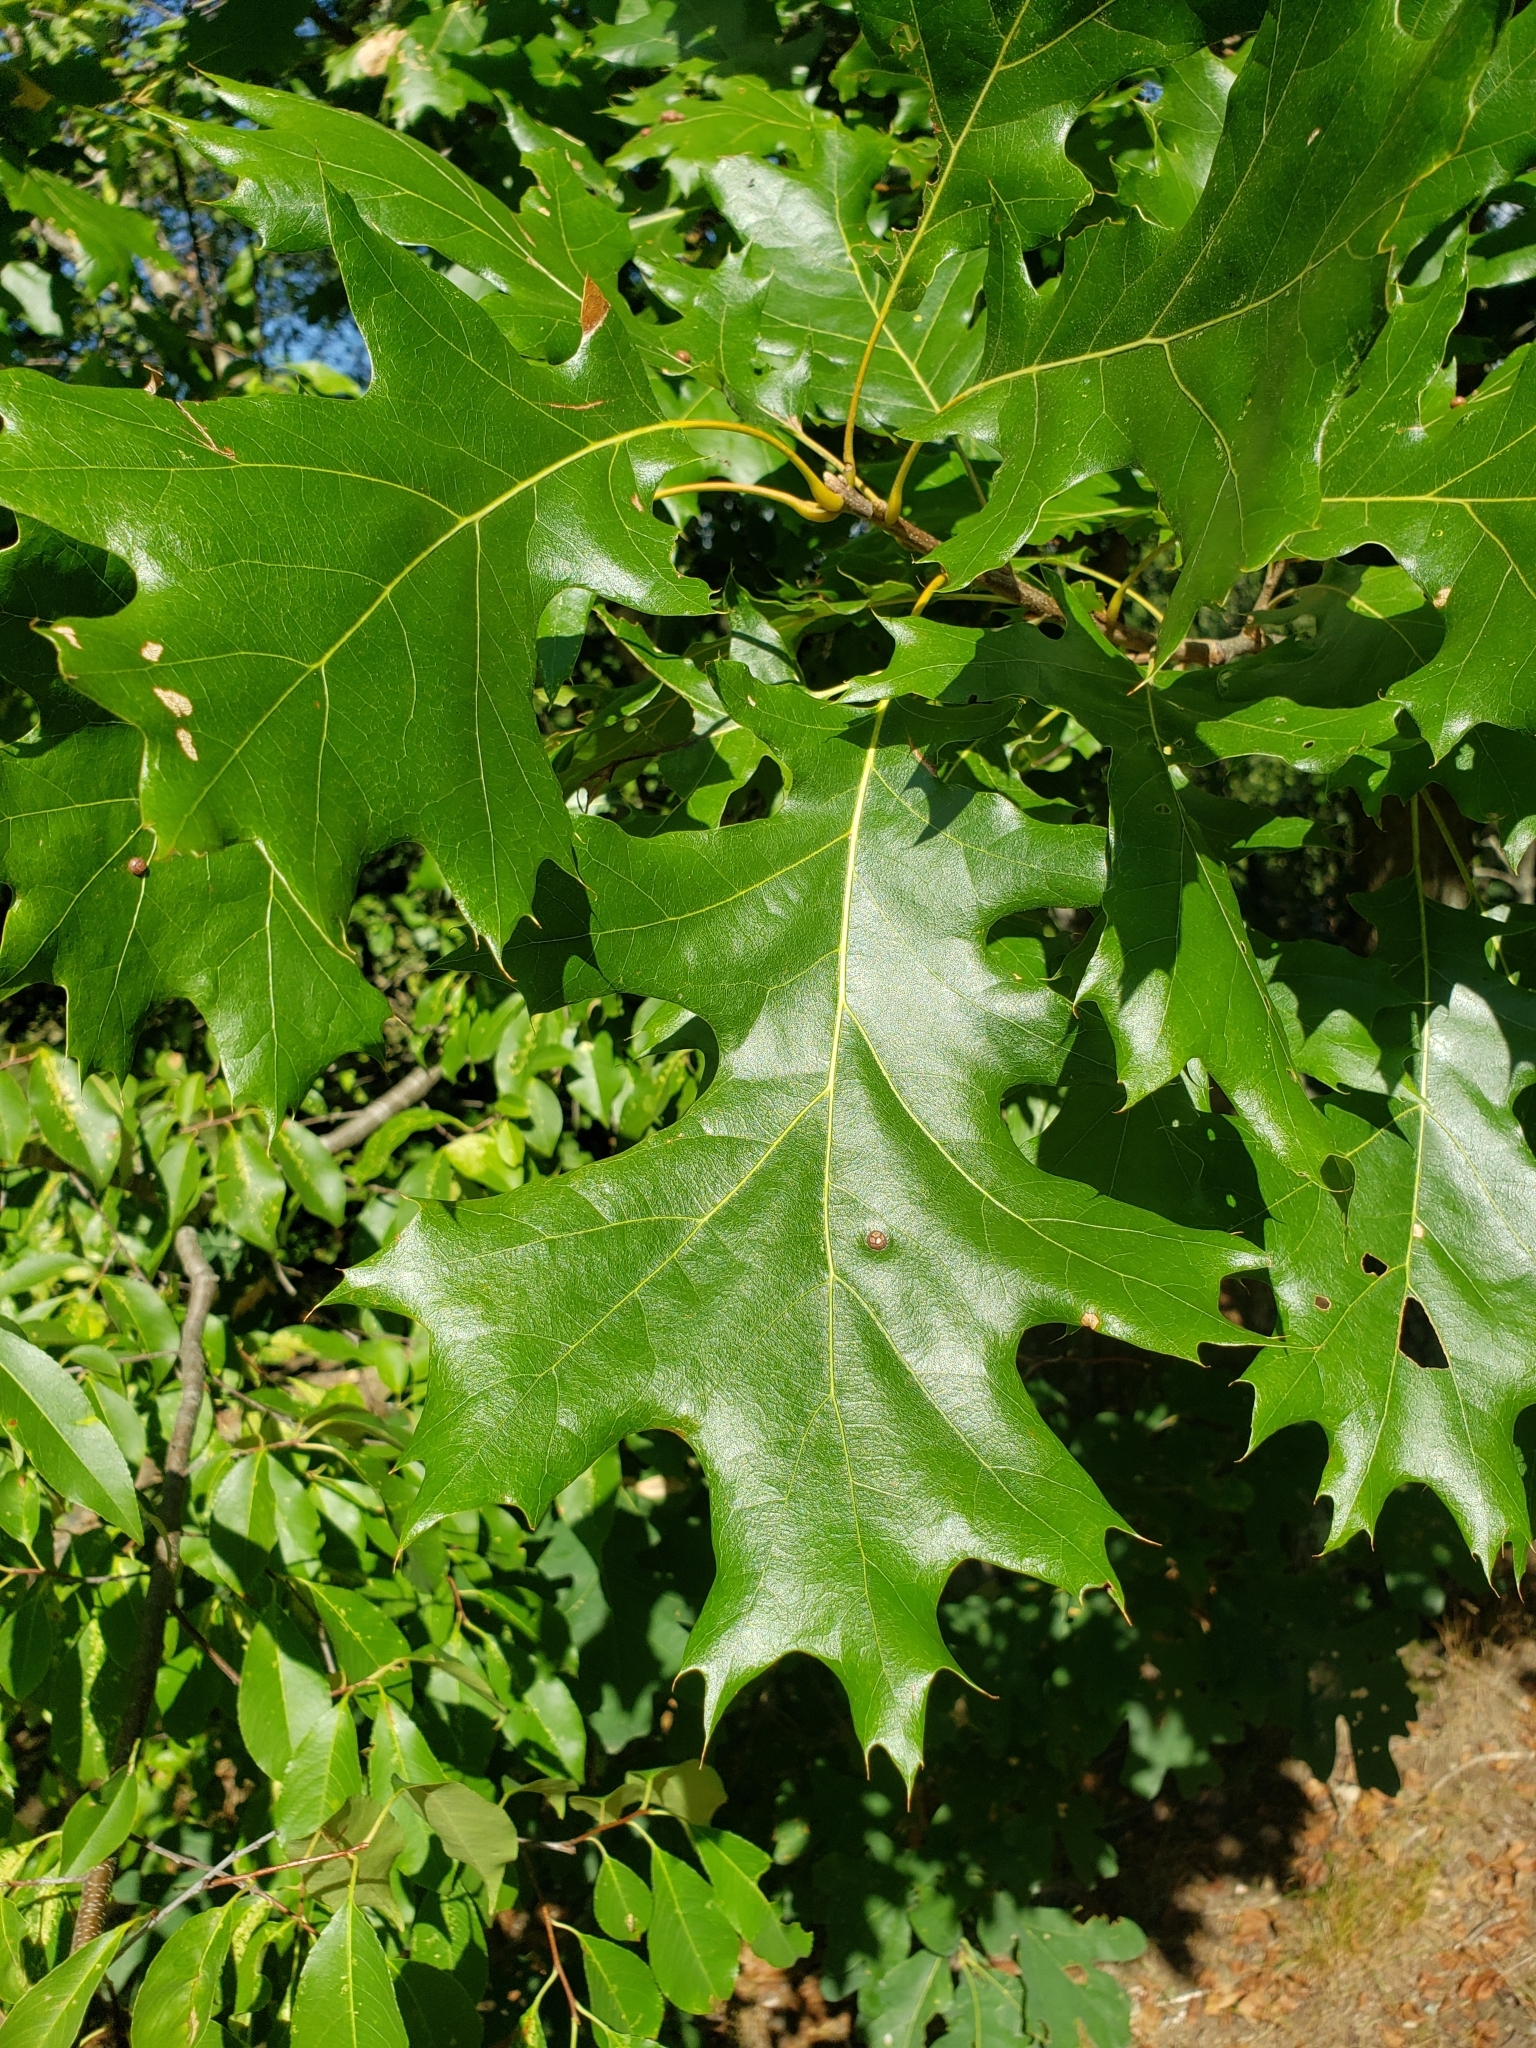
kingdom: Plantae
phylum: Tracheophyta
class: Magnoliopsida
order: Fagales
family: Fagaceae
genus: Quercus
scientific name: Quercus velutina
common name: Black oak
